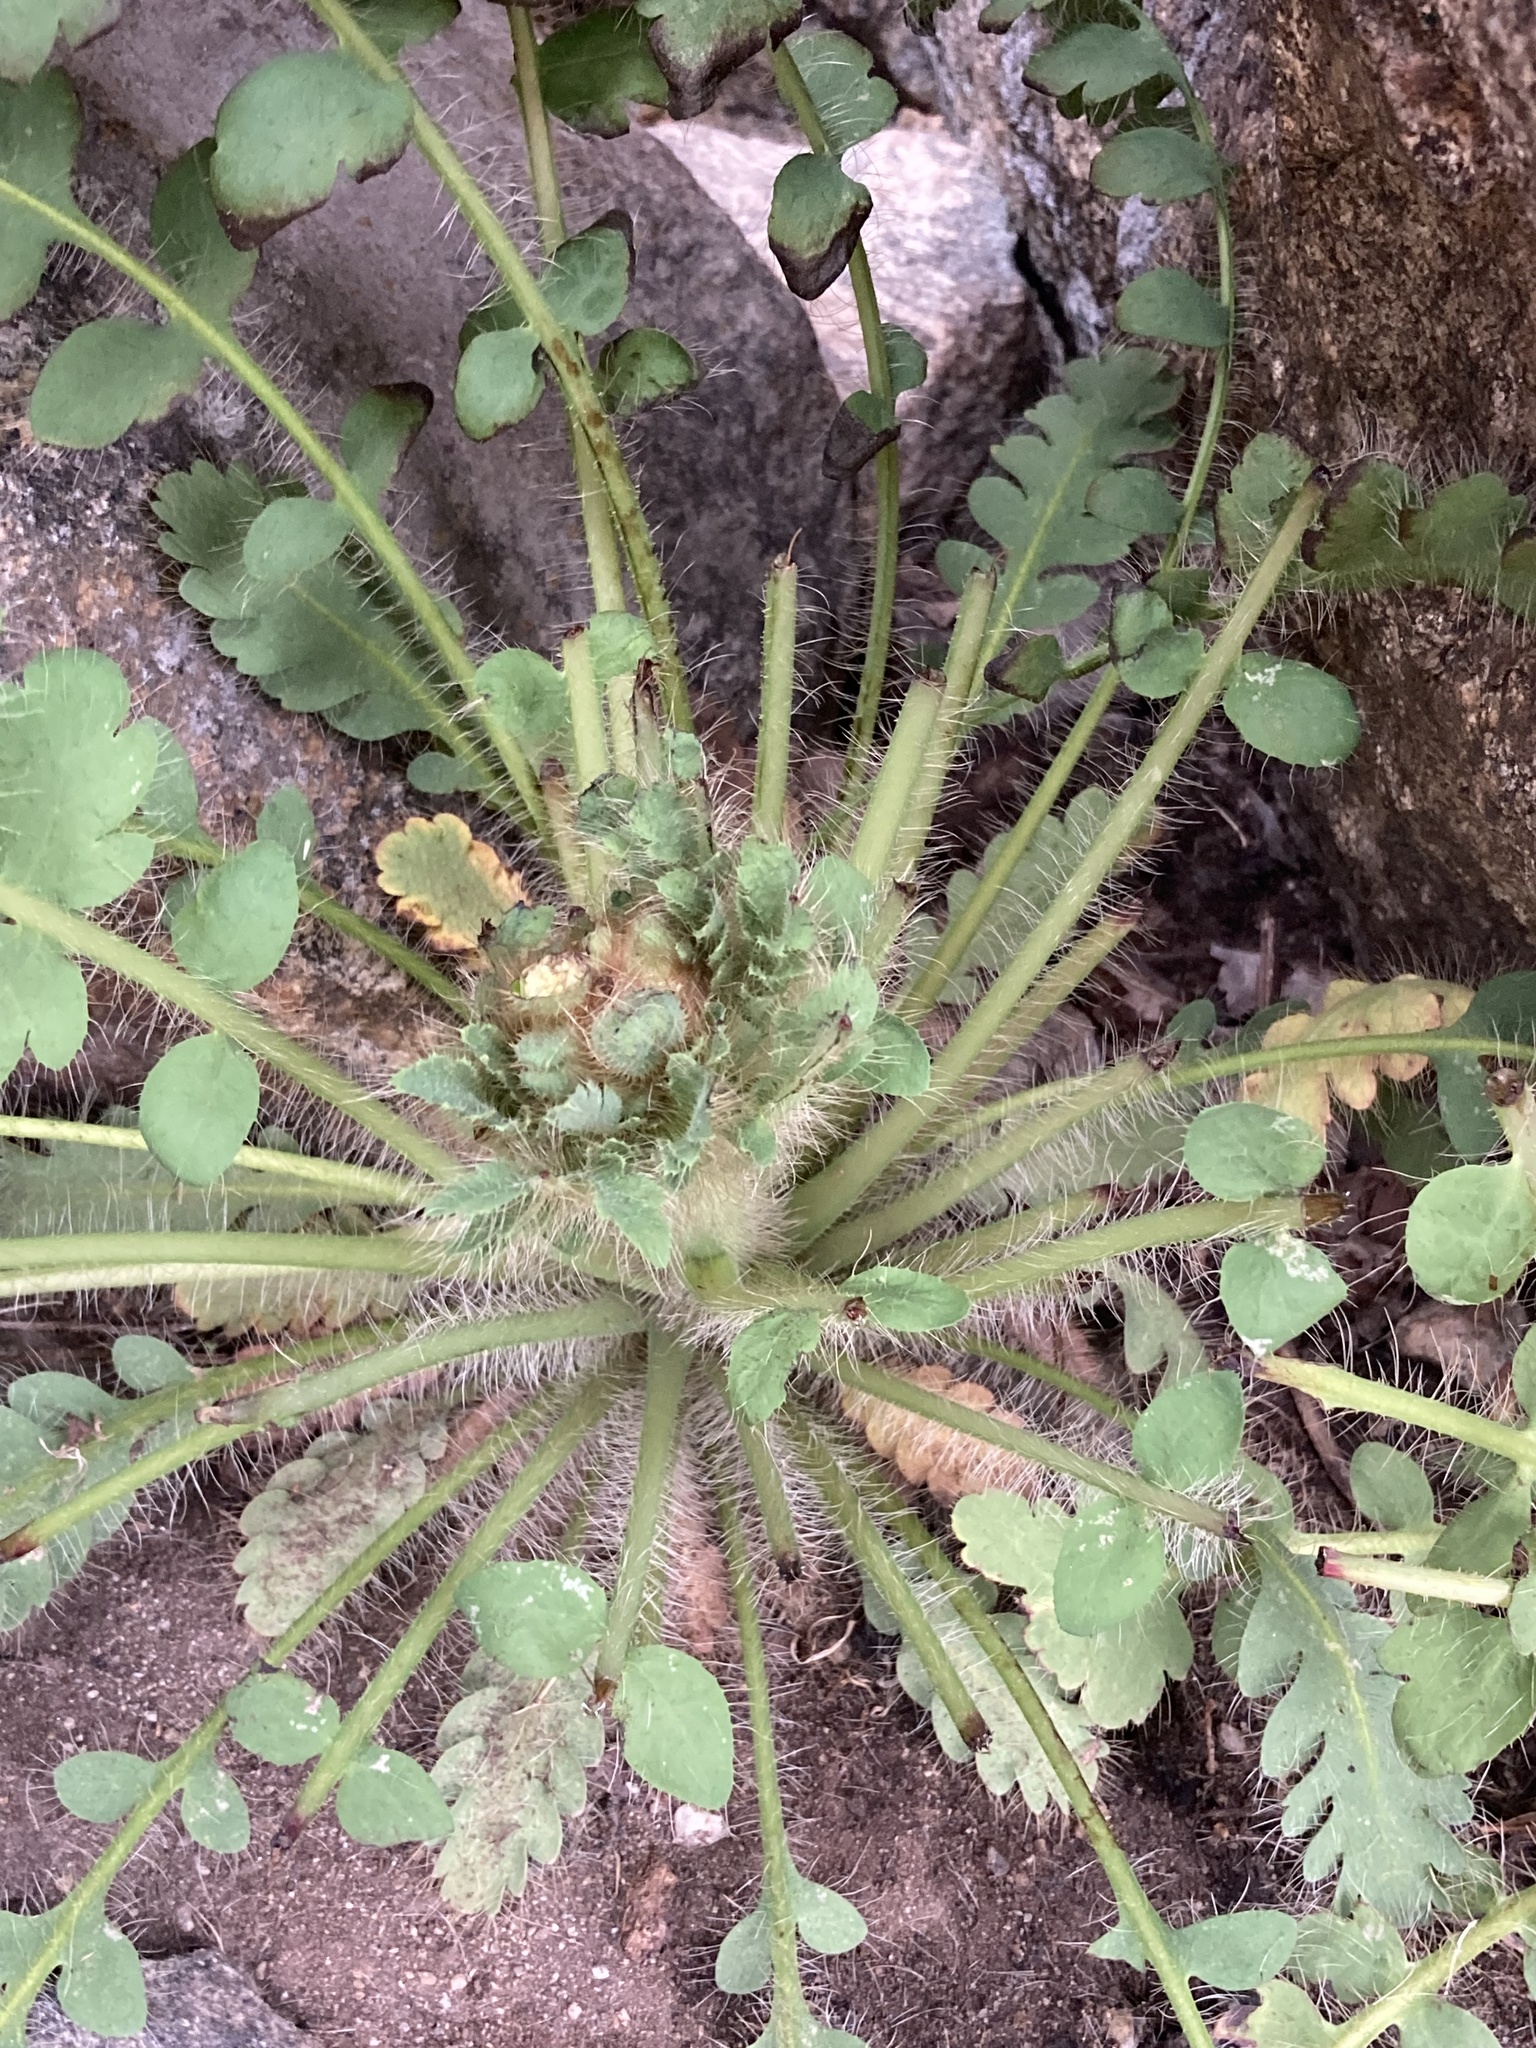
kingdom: Plantae
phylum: Tracheophyta
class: Magnoliopsida
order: Ranunculales
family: Papaveraceae
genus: Meconopsis
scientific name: Meconopsis napaulensis
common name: Satin-poppy
